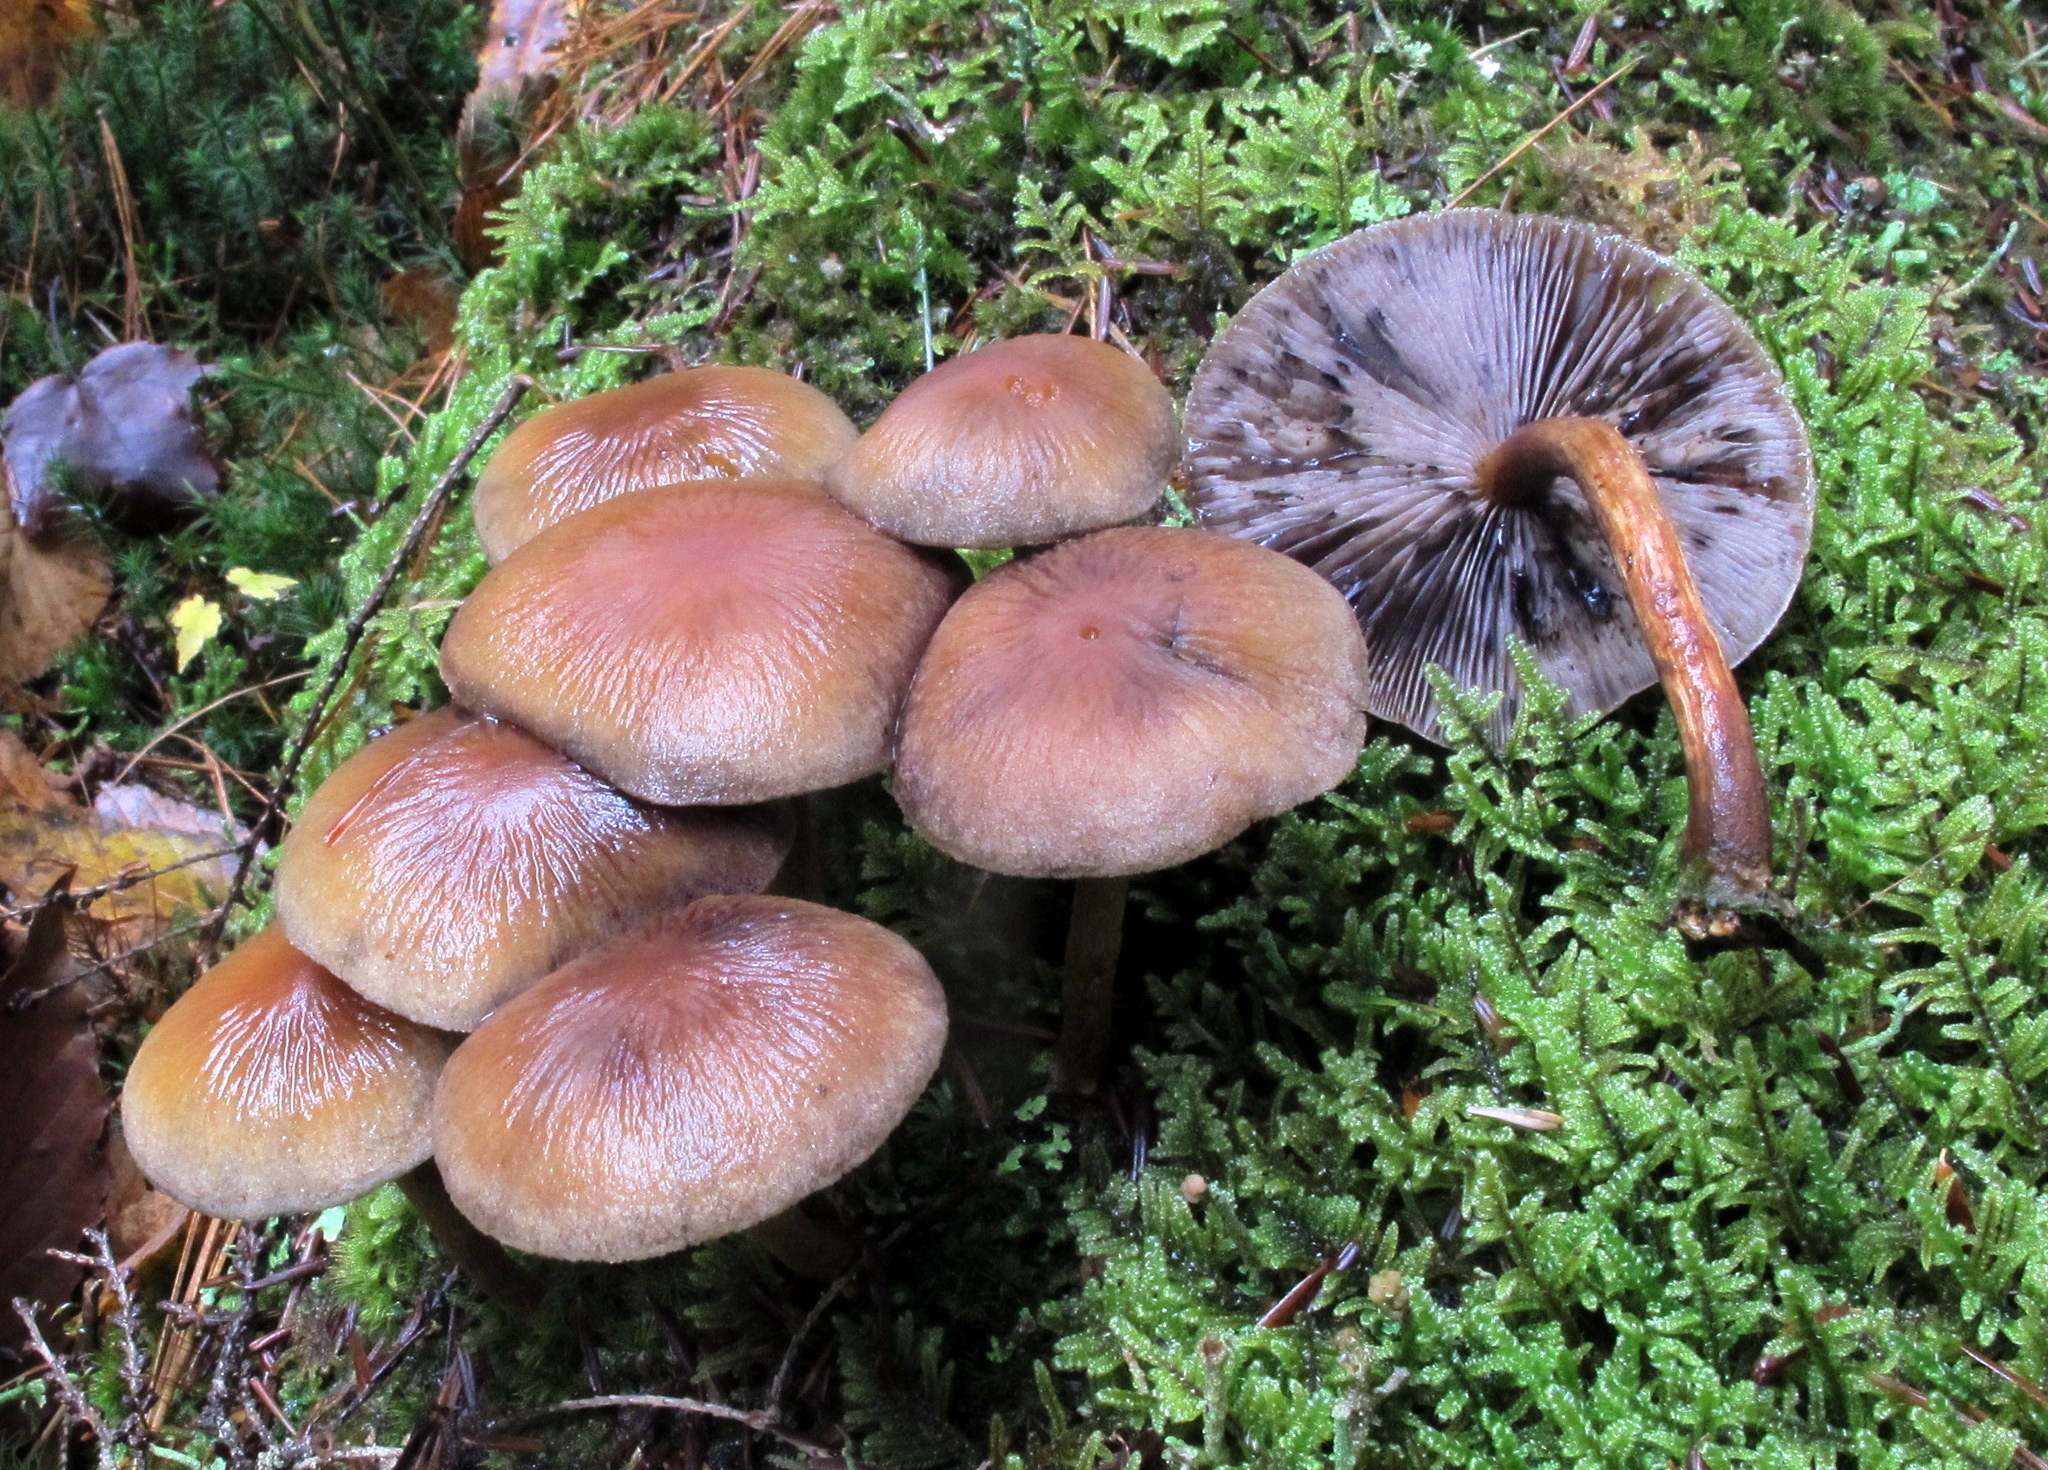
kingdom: Fungi
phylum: Basidiomycota
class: Agaricomycetes
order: Agaricales
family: Psathyrellaceae
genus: Psathyrella
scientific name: Psathyrella rugocephala
